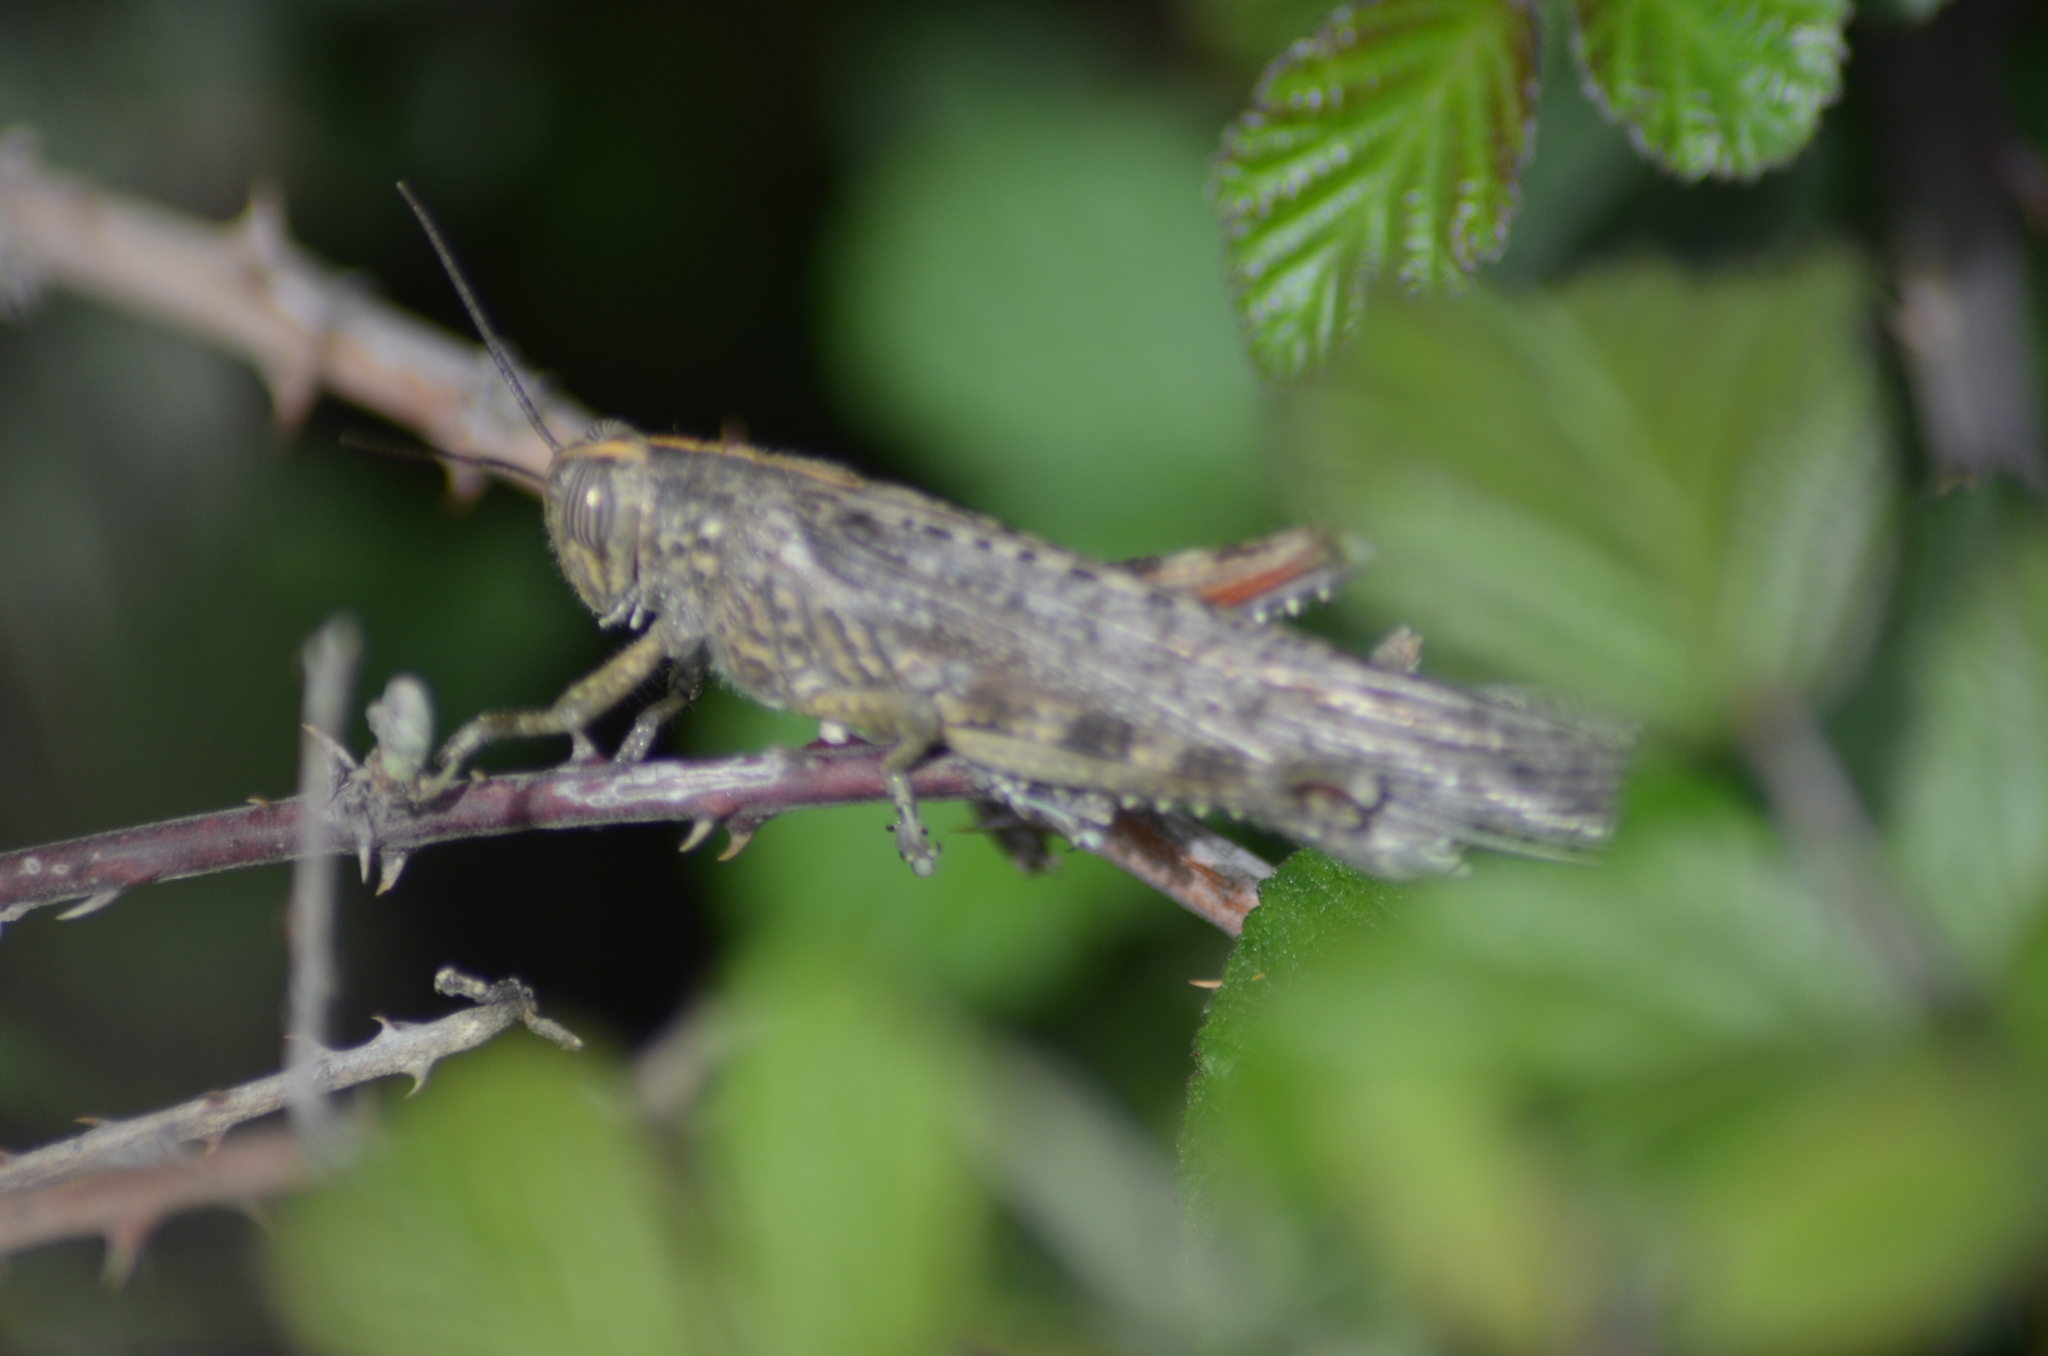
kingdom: Animalia
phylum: Arthropoda
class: Insecta
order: Orthoptera
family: Acrididae
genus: Anacridium
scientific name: Anacridium aegyptium
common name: Egyptian grasshopper
